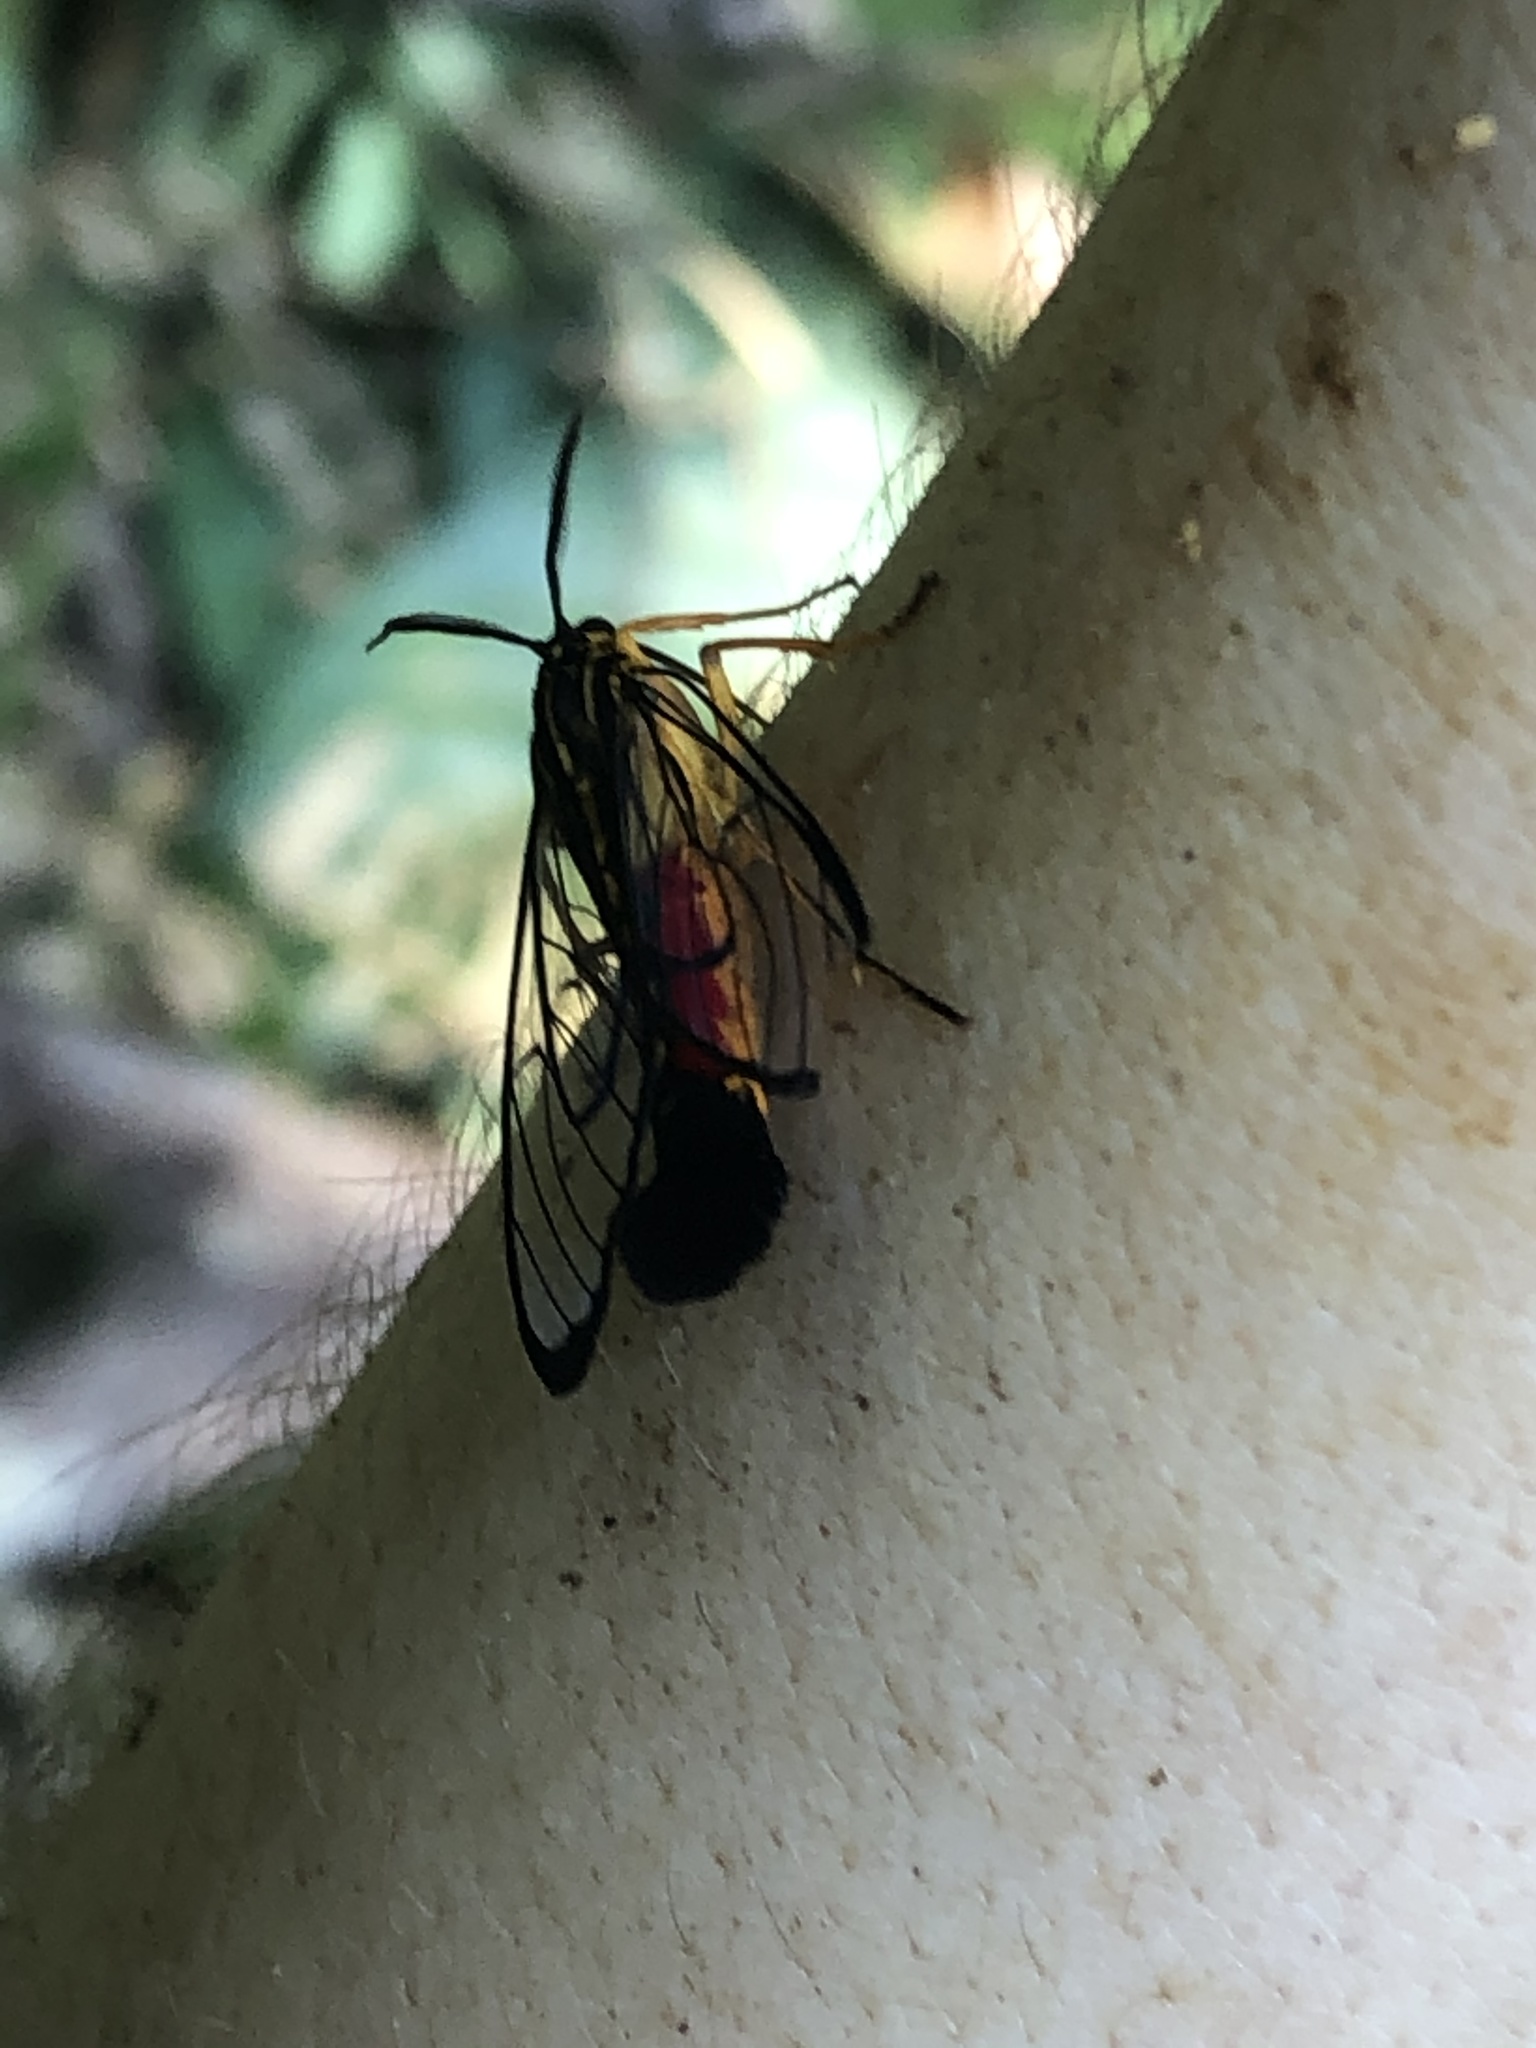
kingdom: Animalia
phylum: Arthropoda
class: Insecta
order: Lepidoptera
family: Erebidae
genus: Corematura
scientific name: Corematura chrysogastra
